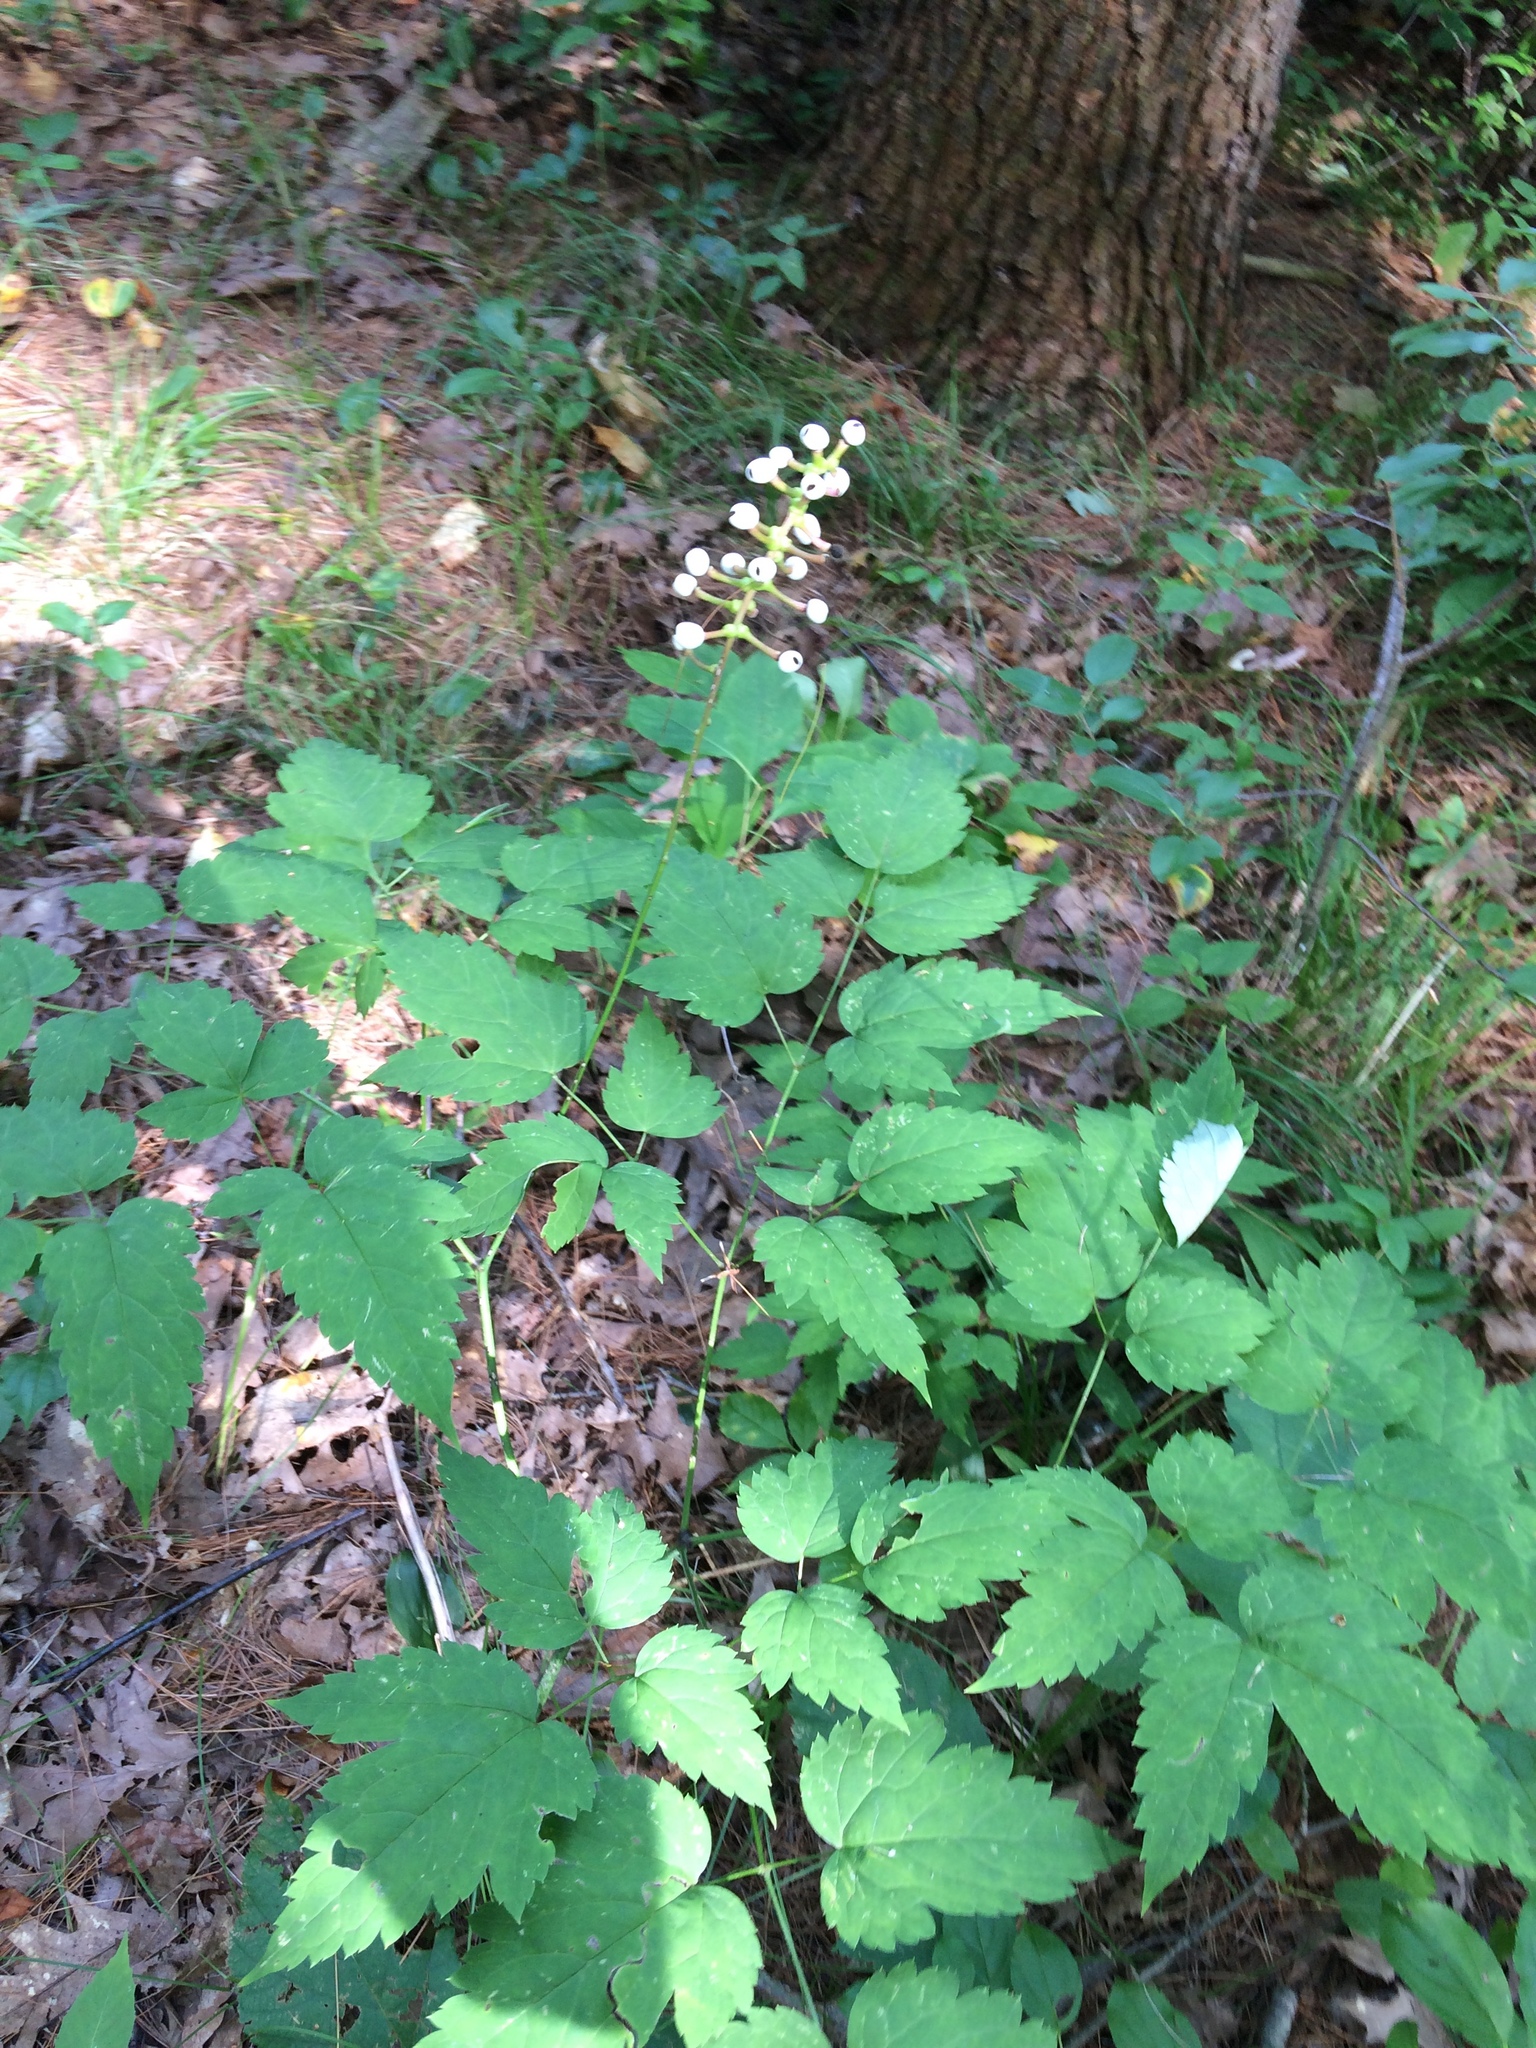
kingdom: Plantae
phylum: Tracheophyta
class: Magnoliopsida
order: Ranunculales
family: Ranunculaceae
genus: Actaea
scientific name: Actaea pachypoda
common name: Doll's-eyes
